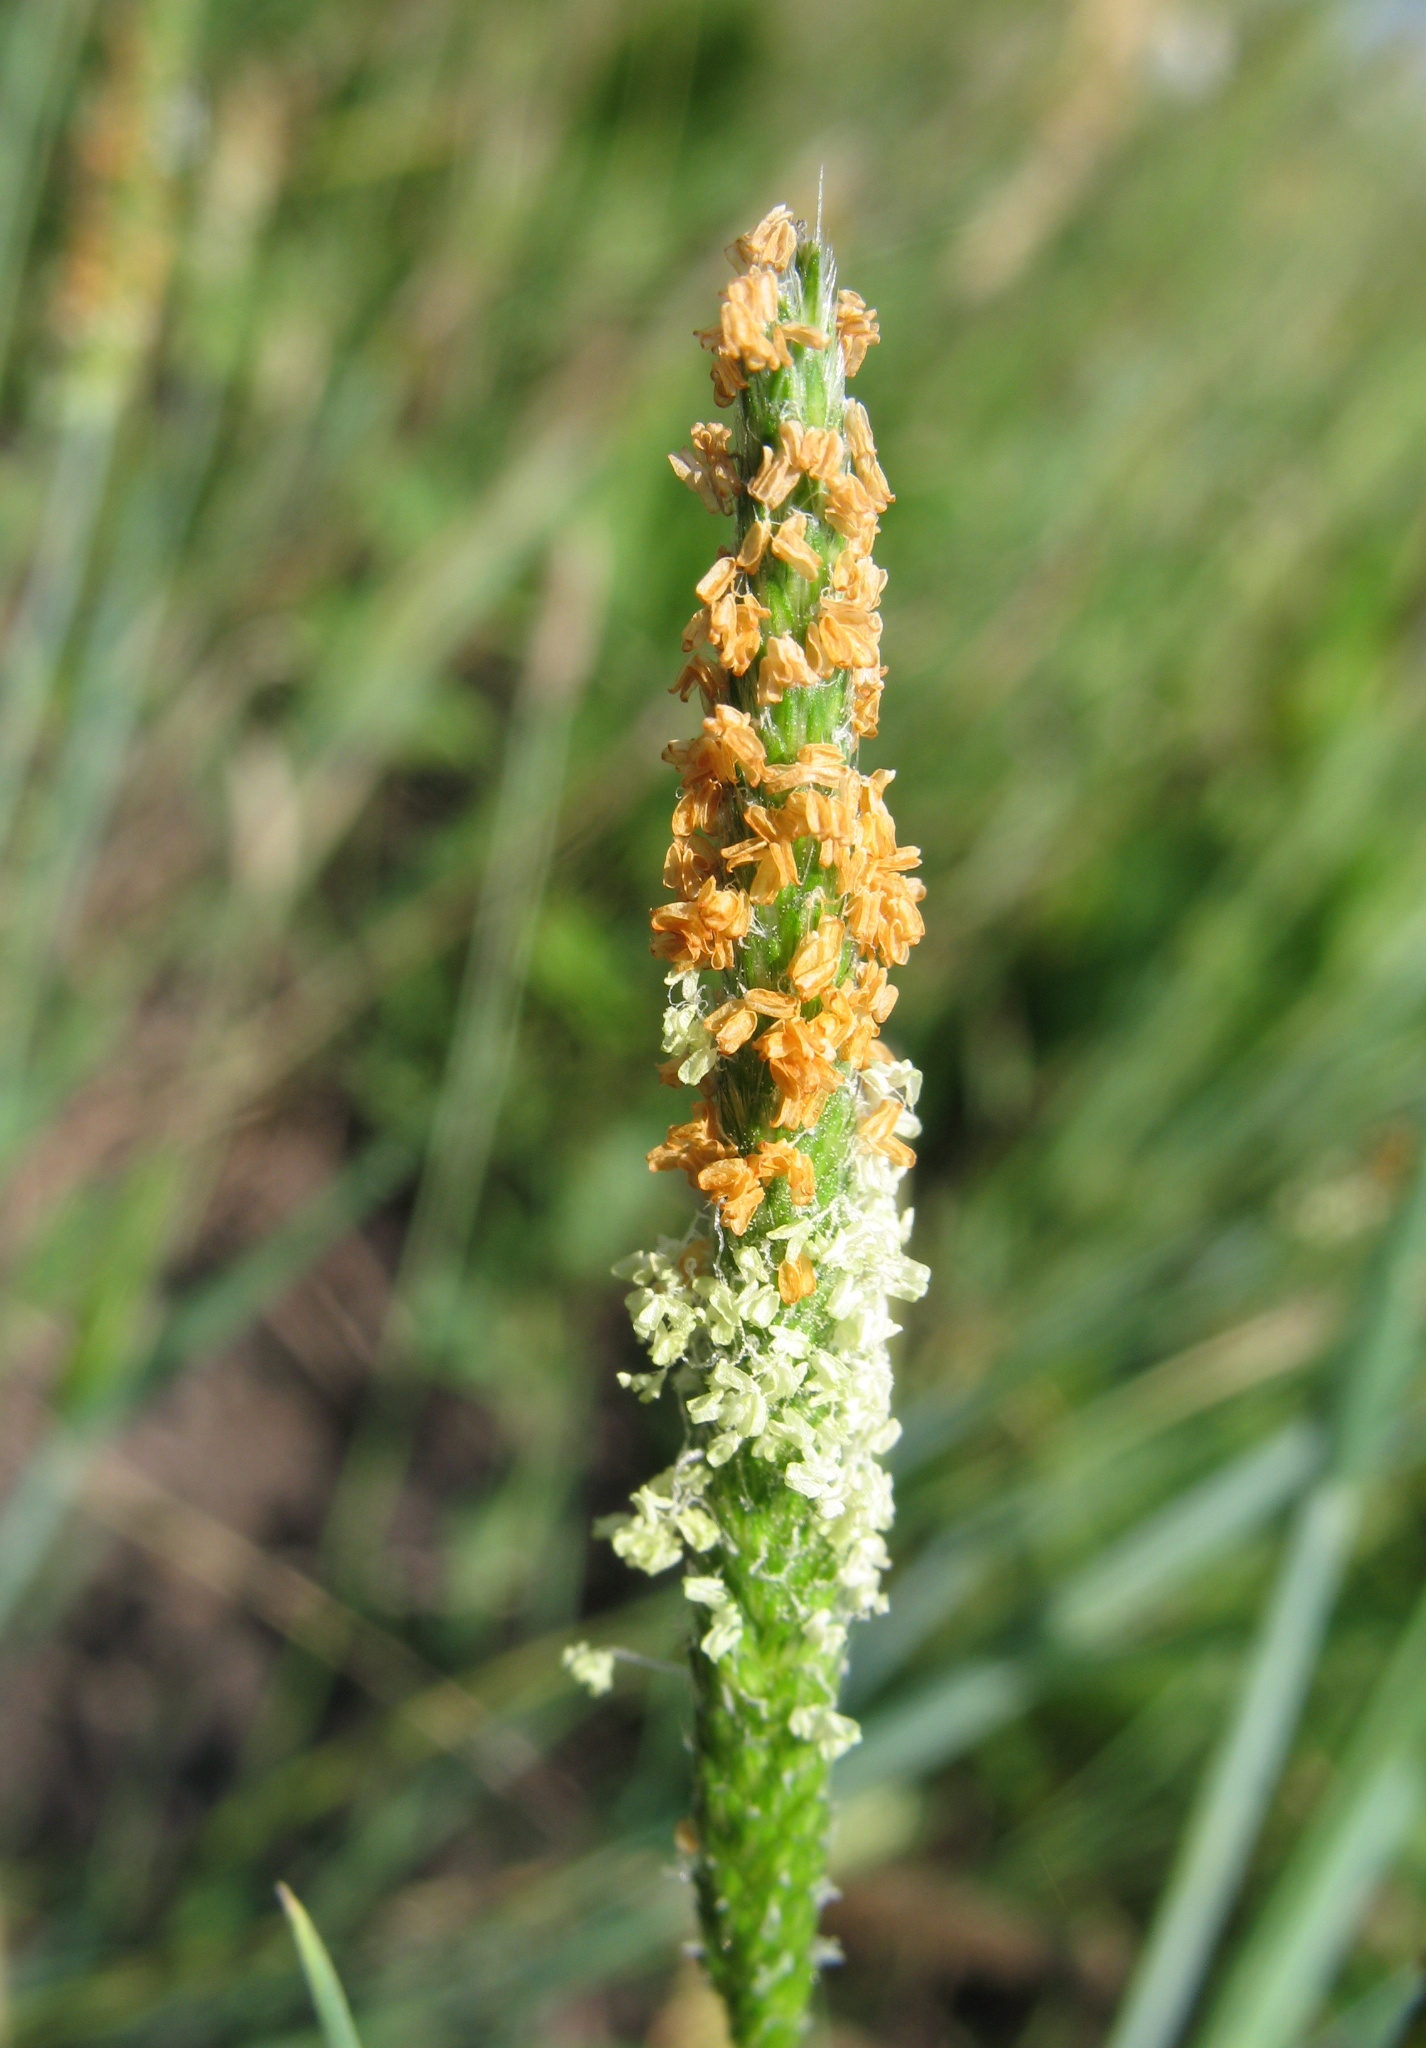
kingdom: Plantae
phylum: Tracheophyta
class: Liliopsida
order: Poales
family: Poaceae
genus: Alopecurus
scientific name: Alopecurus aequalis
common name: Orange foxtail
